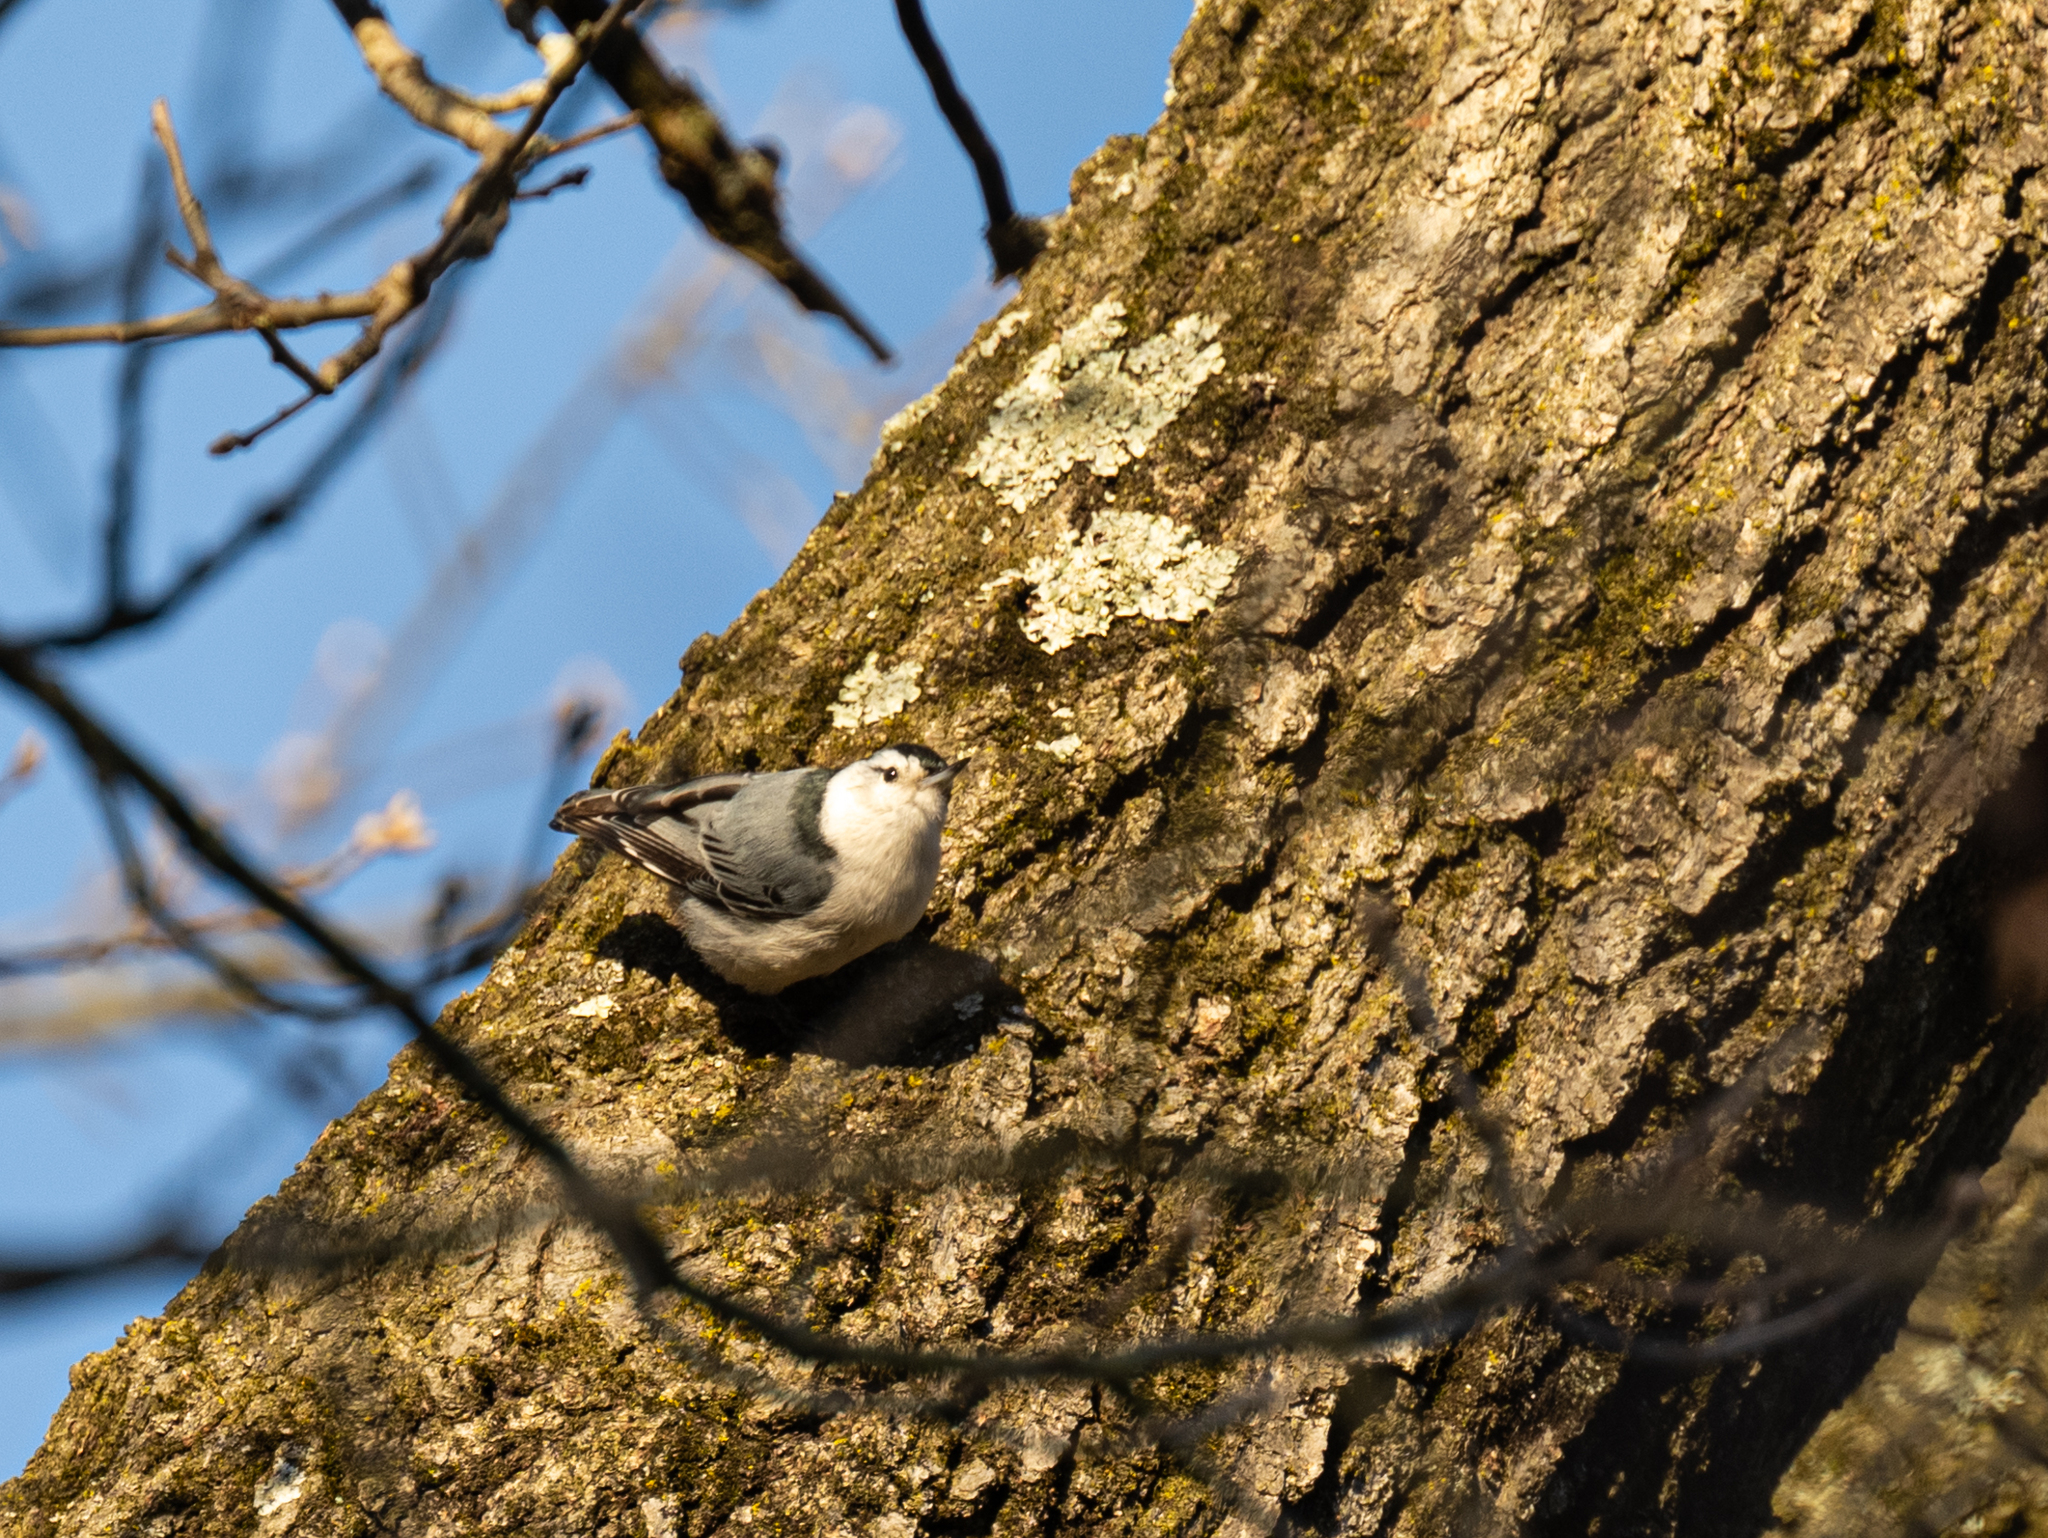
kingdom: Animalia
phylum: Chordata
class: Aves
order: Passeriformes
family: Sittidae
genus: Sitta
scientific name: Sitta carolinensis
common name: White-breasted nuthatch
